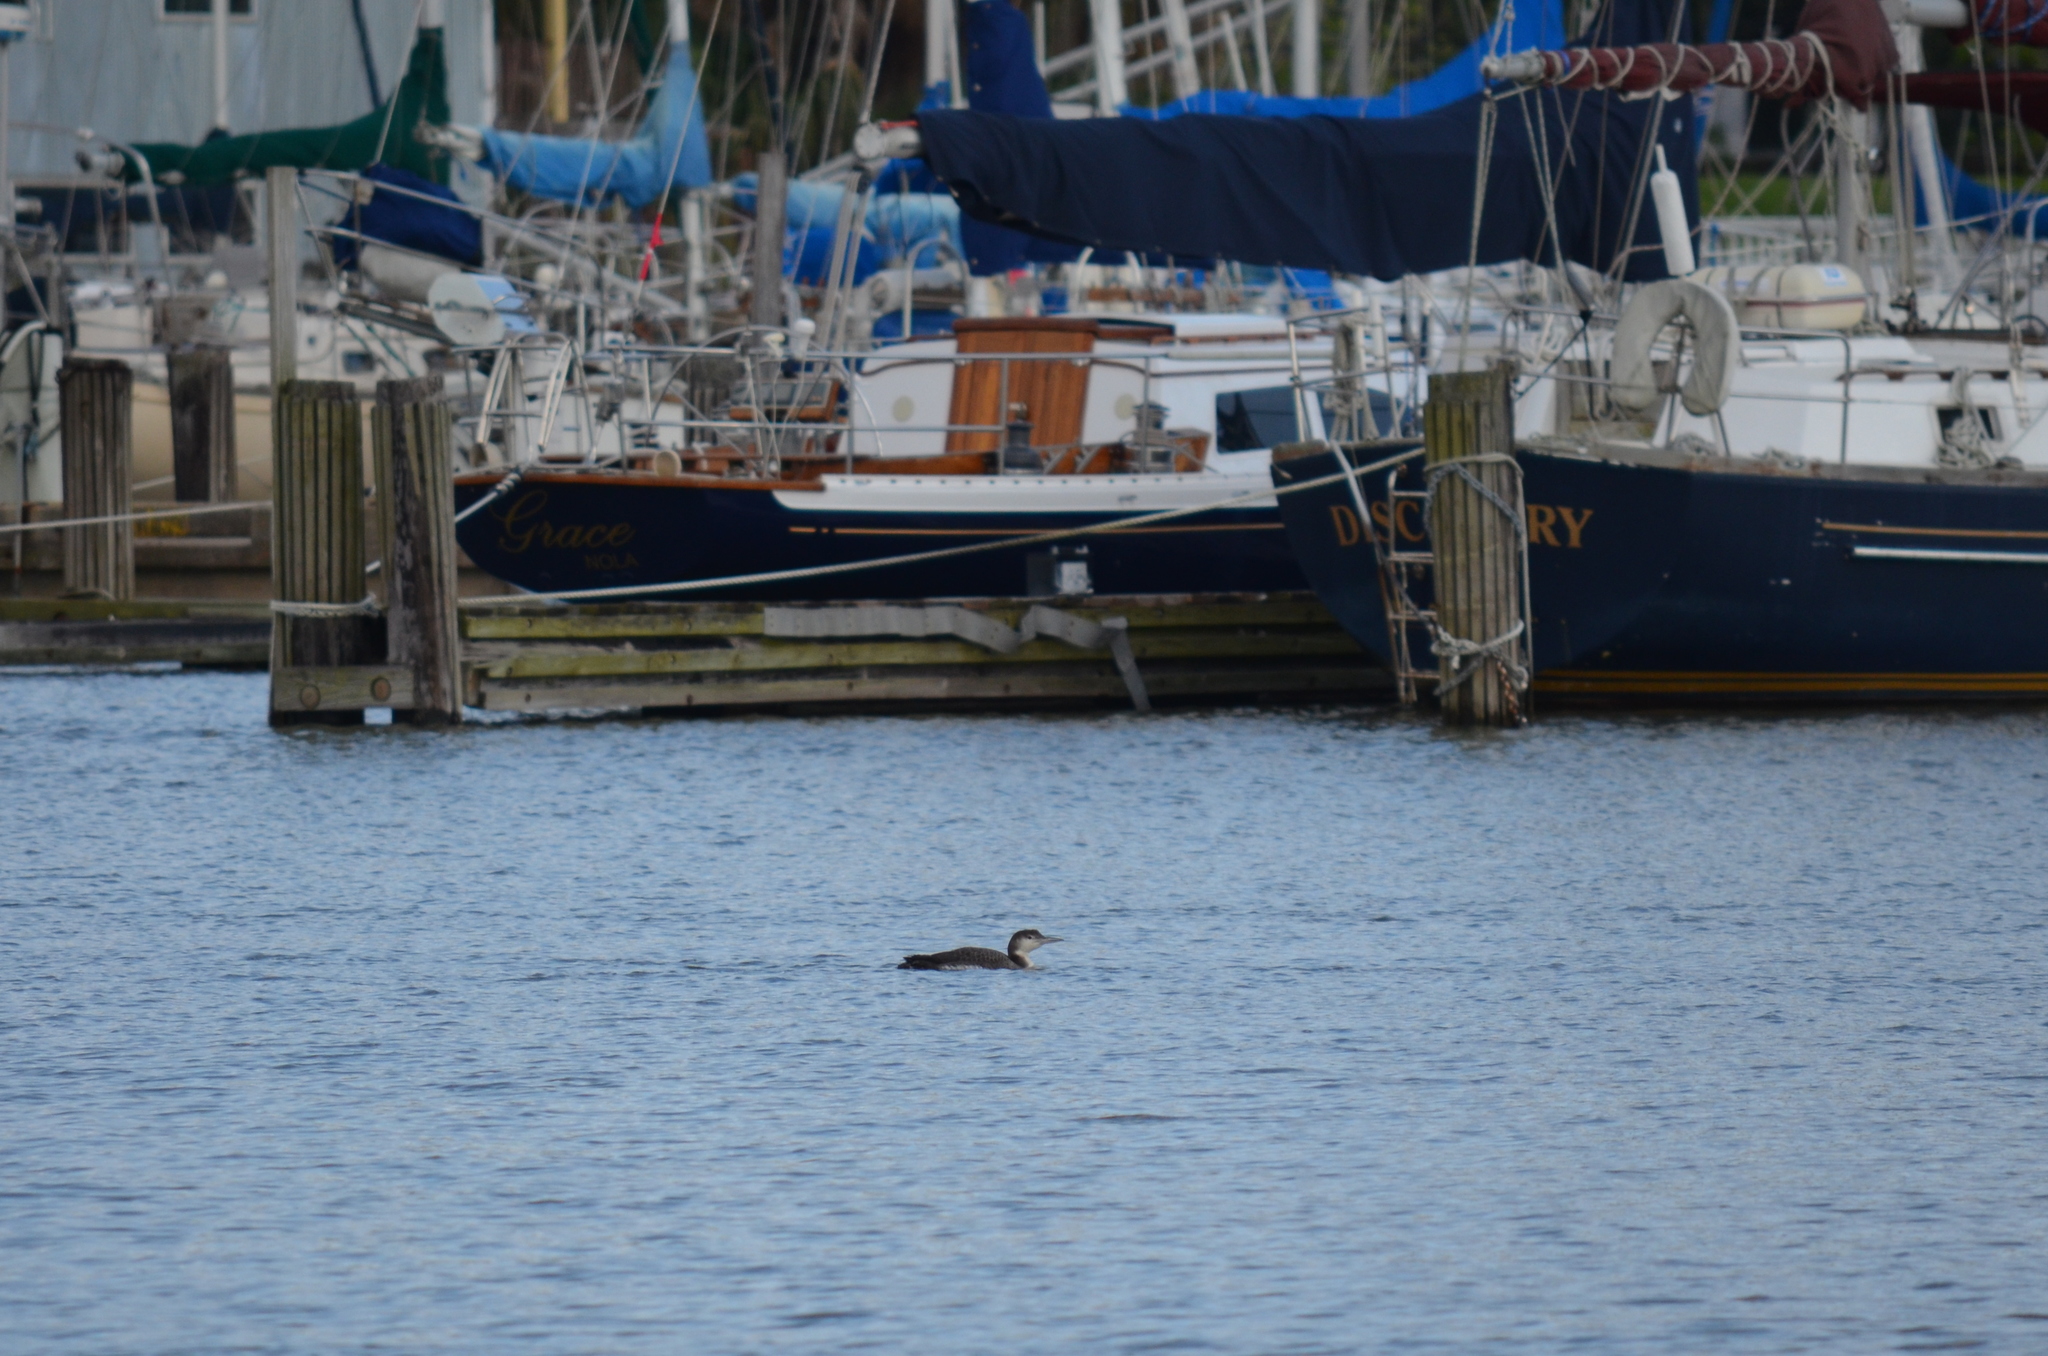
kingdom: Animalia
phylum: Chordata
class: Aves
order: Gaviiformes
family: Gaviidae
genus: Gavia
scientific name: Gavia immer
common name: Common loon
